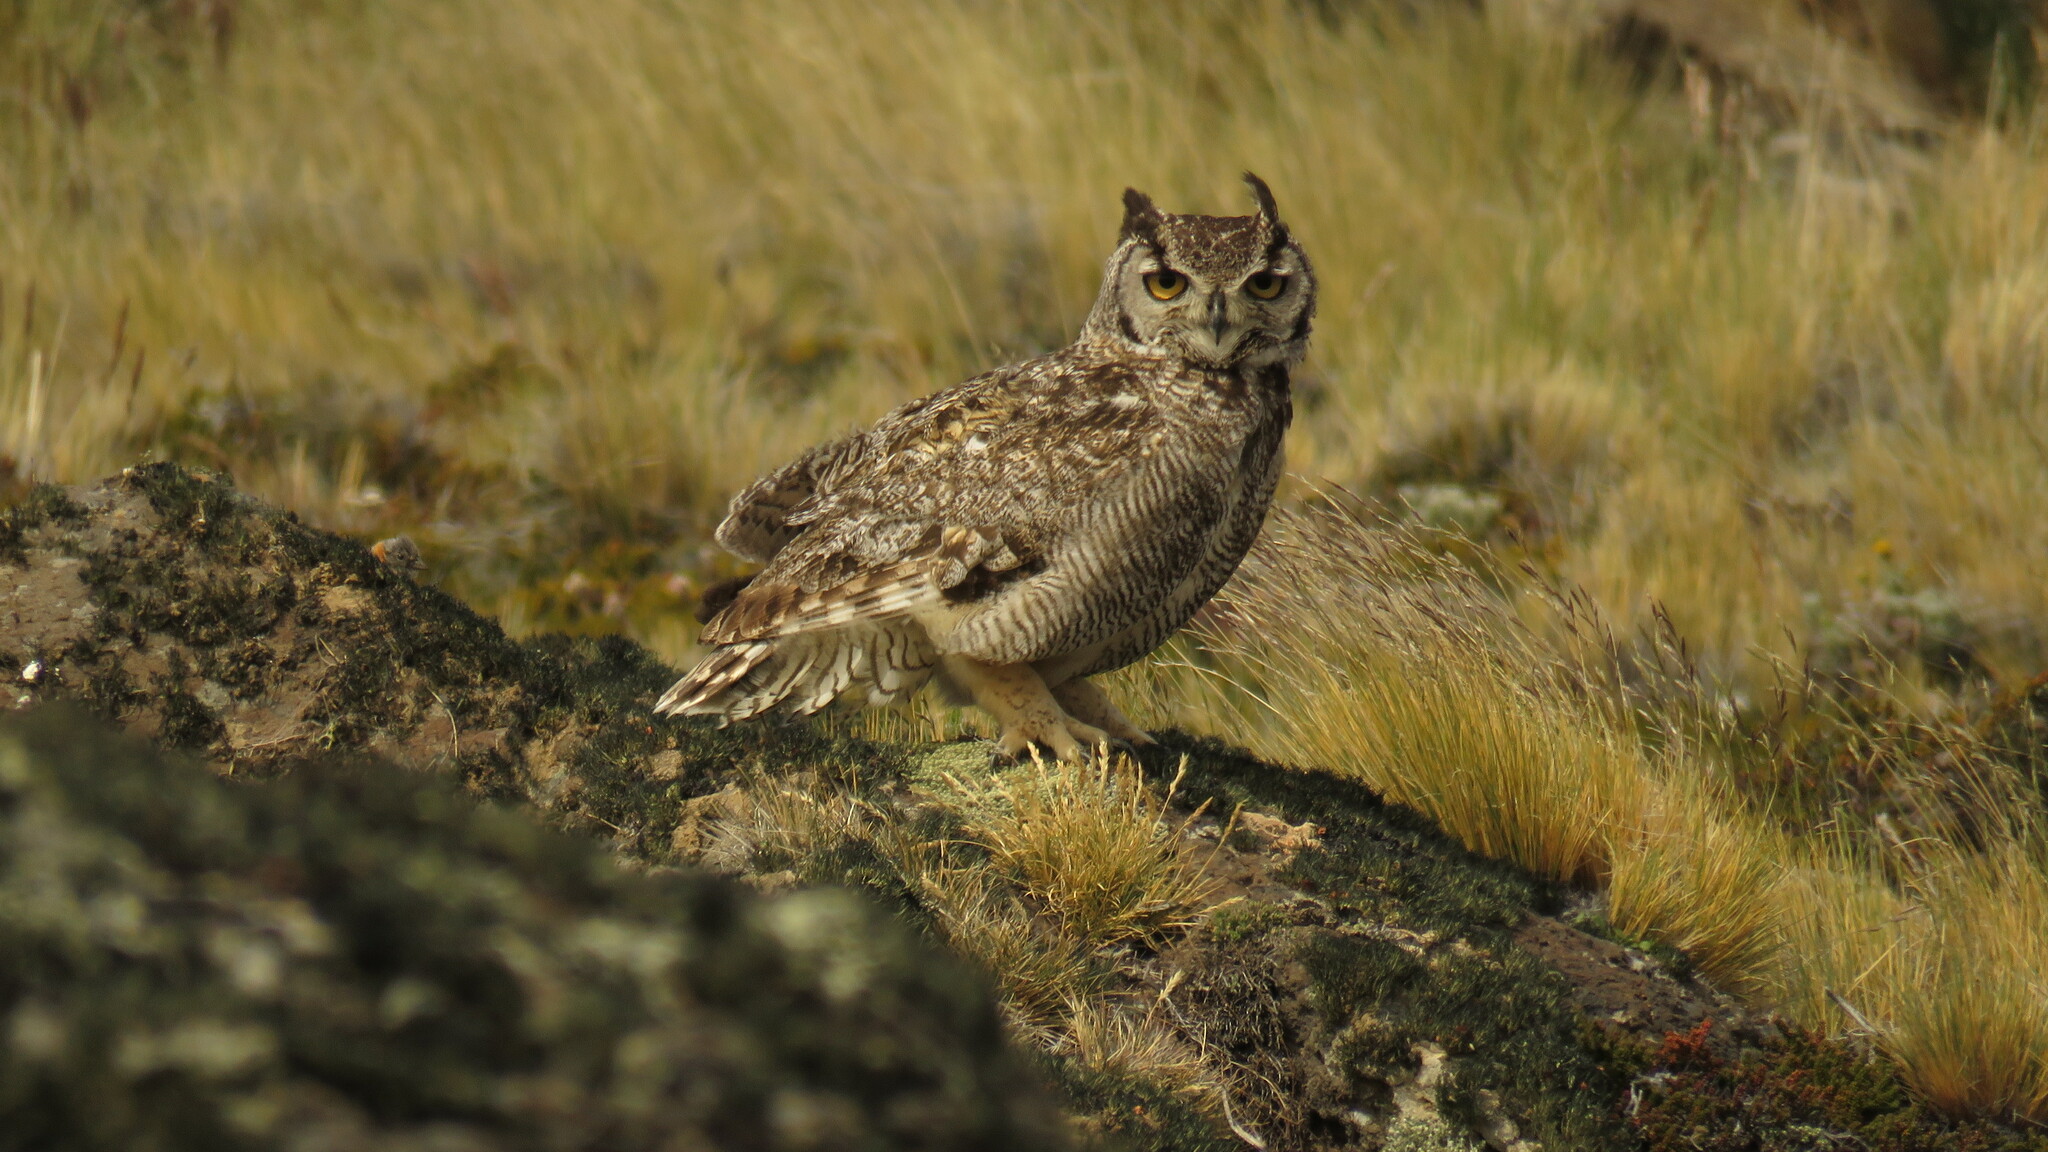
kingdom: Animalia
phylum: Chordata
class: Aves
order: Strigiformes
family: Strigidae
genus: Bubo
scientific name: Bubo magellanicus
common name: Lesser horned owl
